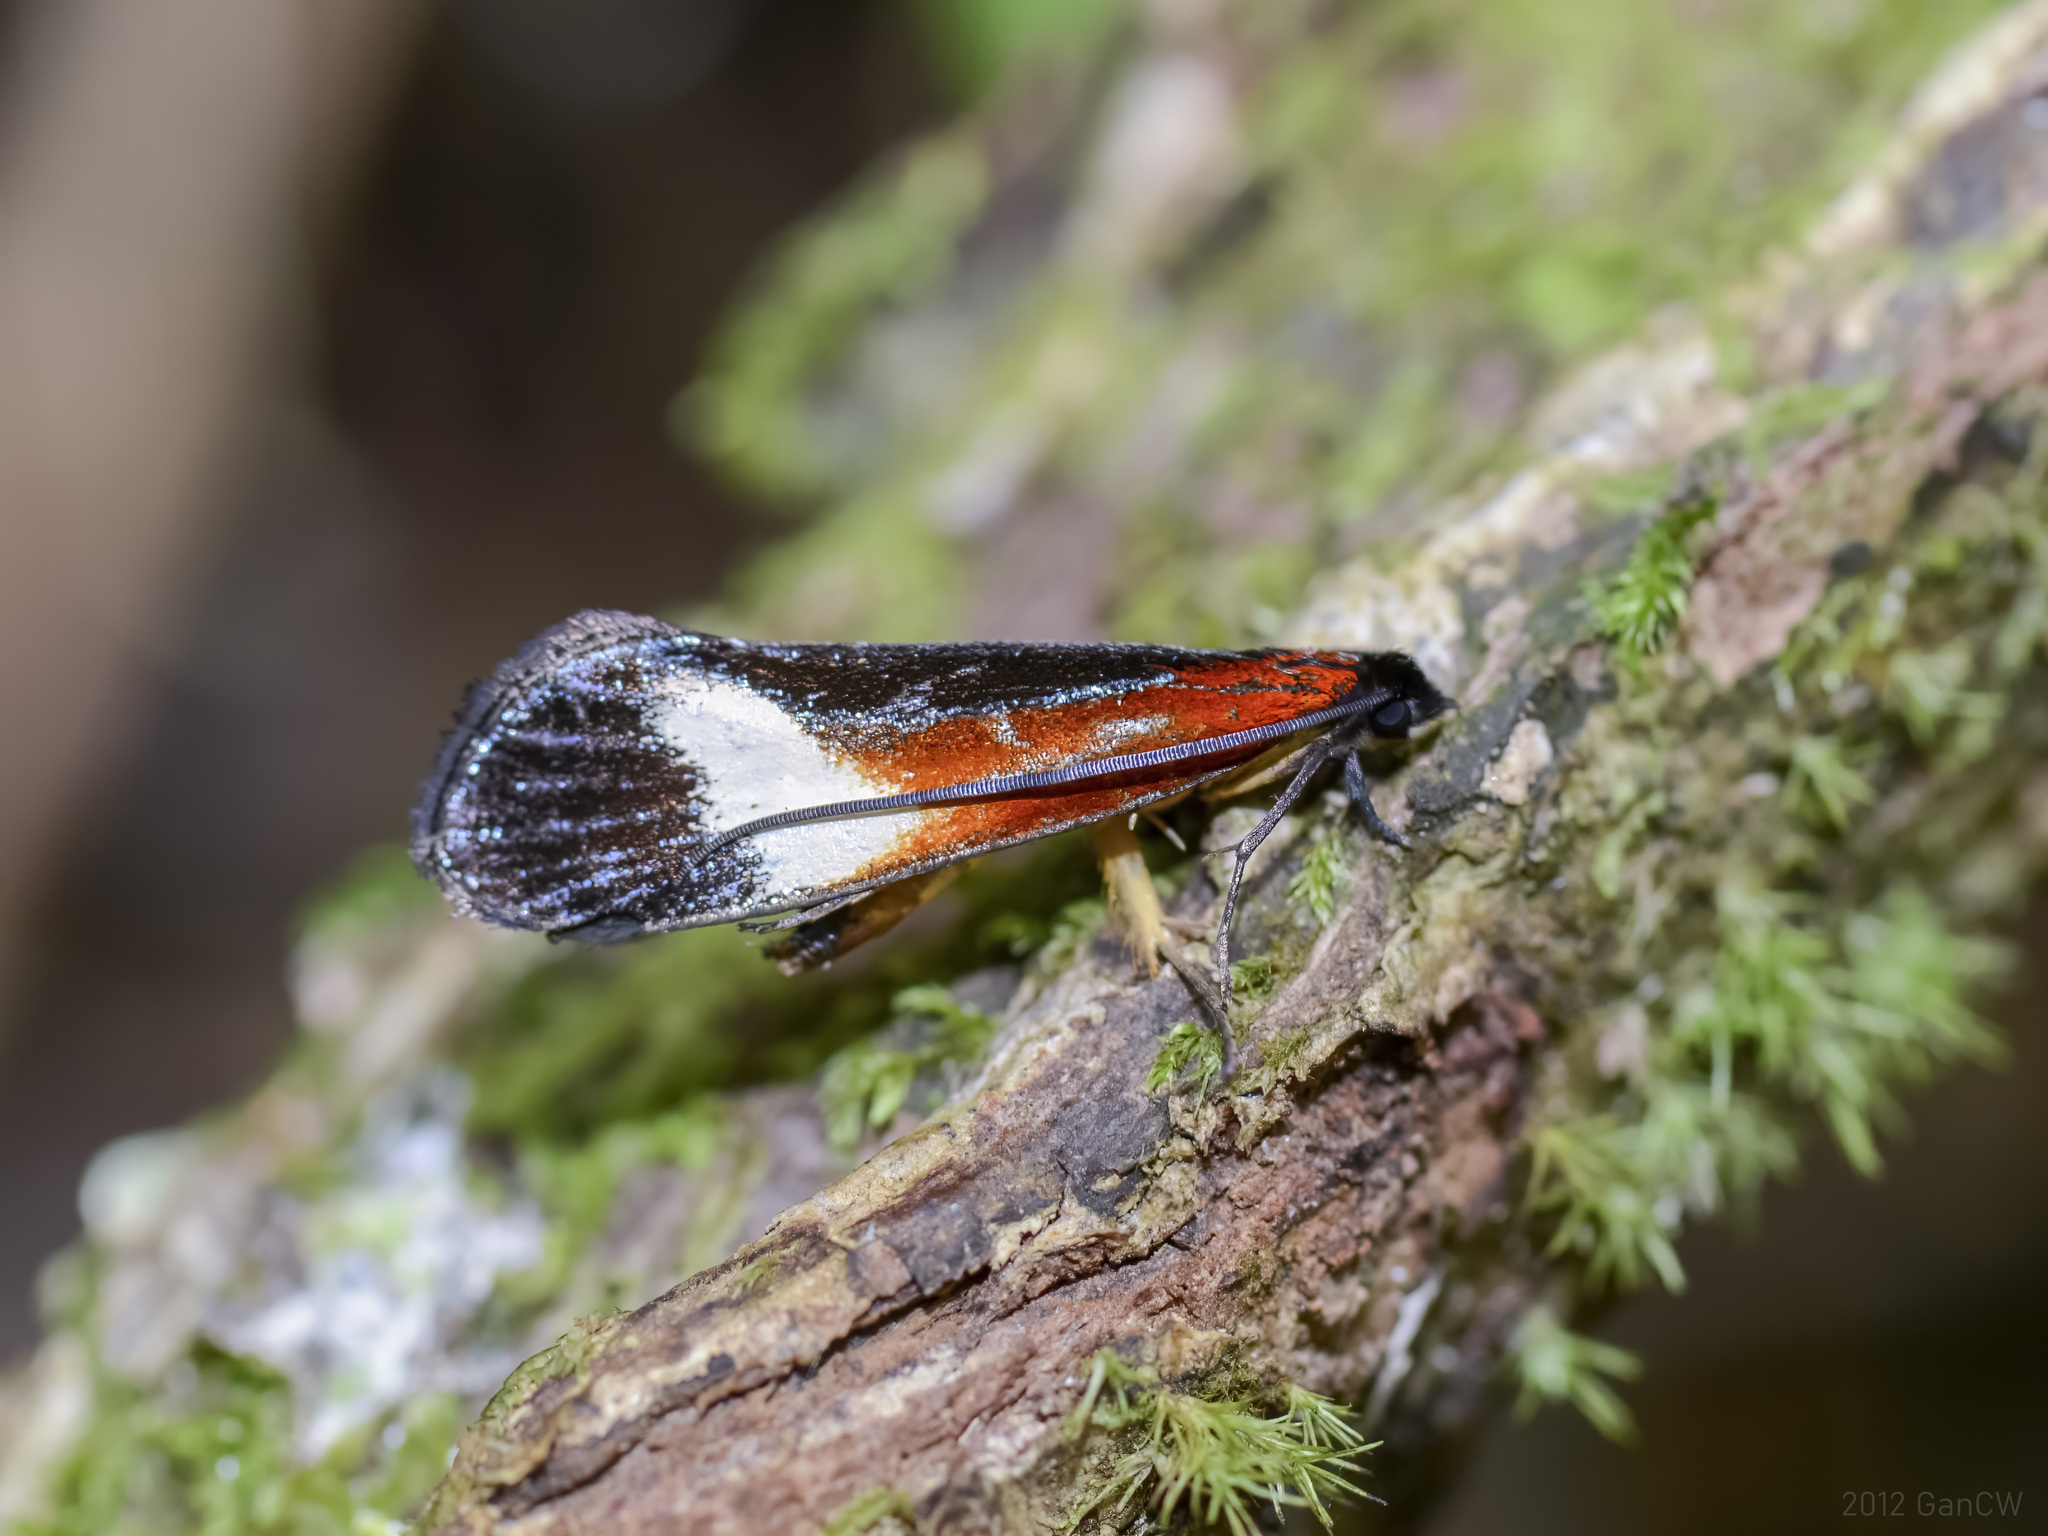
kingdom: Animalia
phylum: Arthropoda
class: Insecta
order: Lepidoptera
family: Tineidae
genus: Coryptilum
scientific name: Coryptilum rutilella
